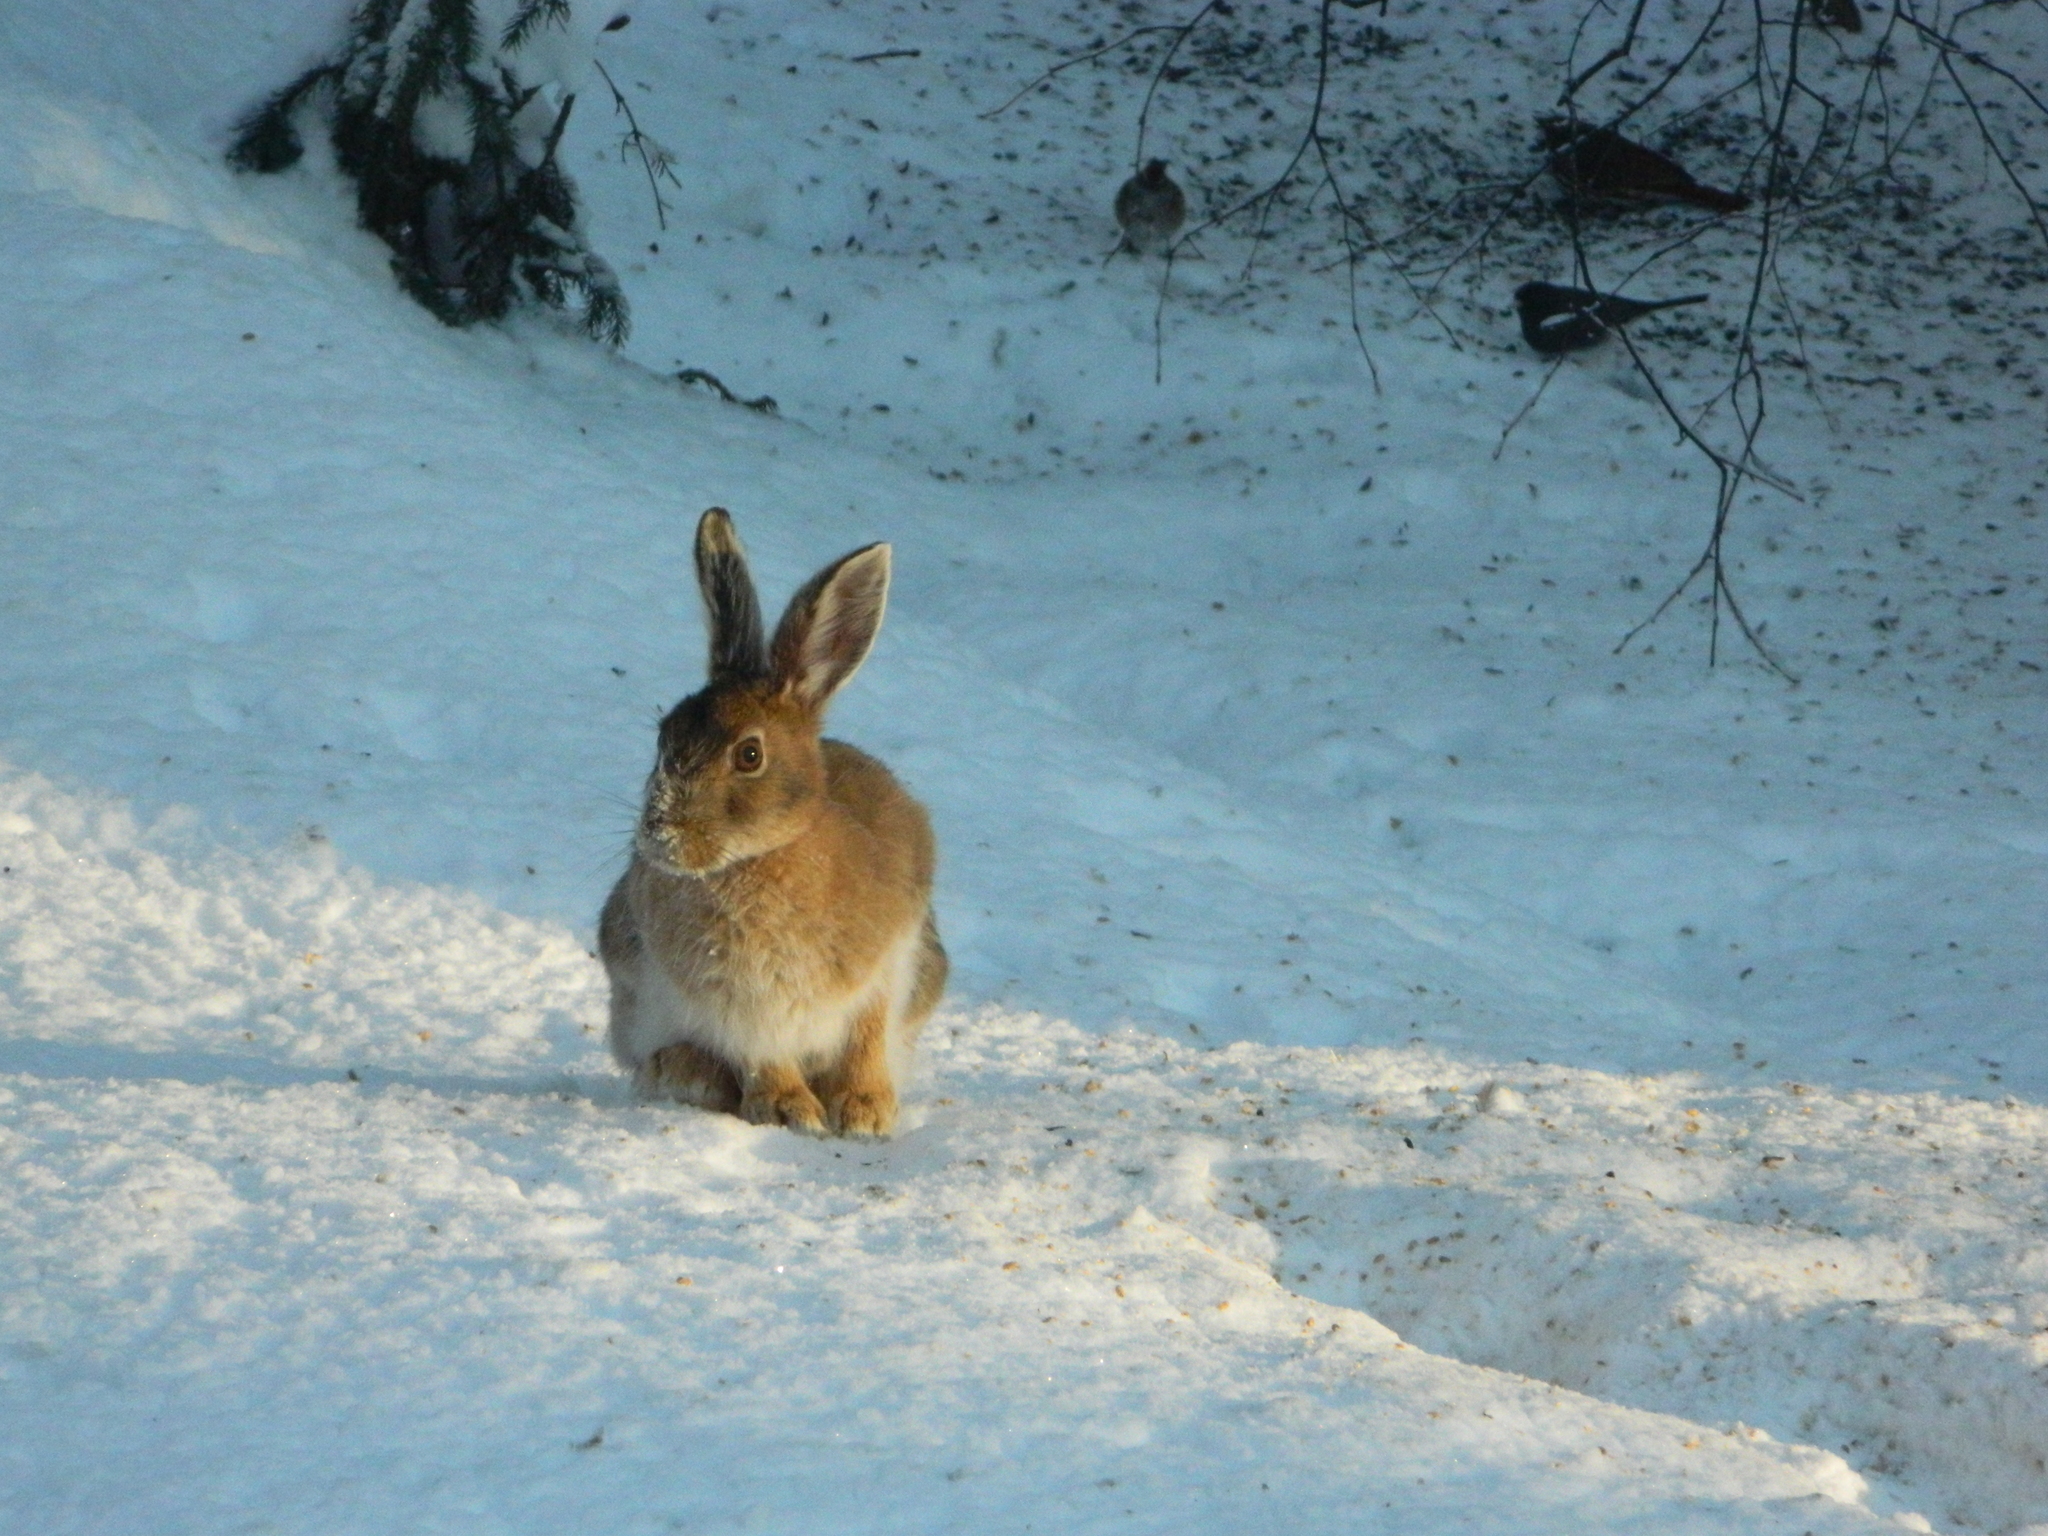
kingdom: Animalia
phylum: Chordata
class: Mammalia
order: Lagomorpha
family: Leporidae
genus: Lepus
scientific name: Lepus americanus
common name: Snowshoe hare
